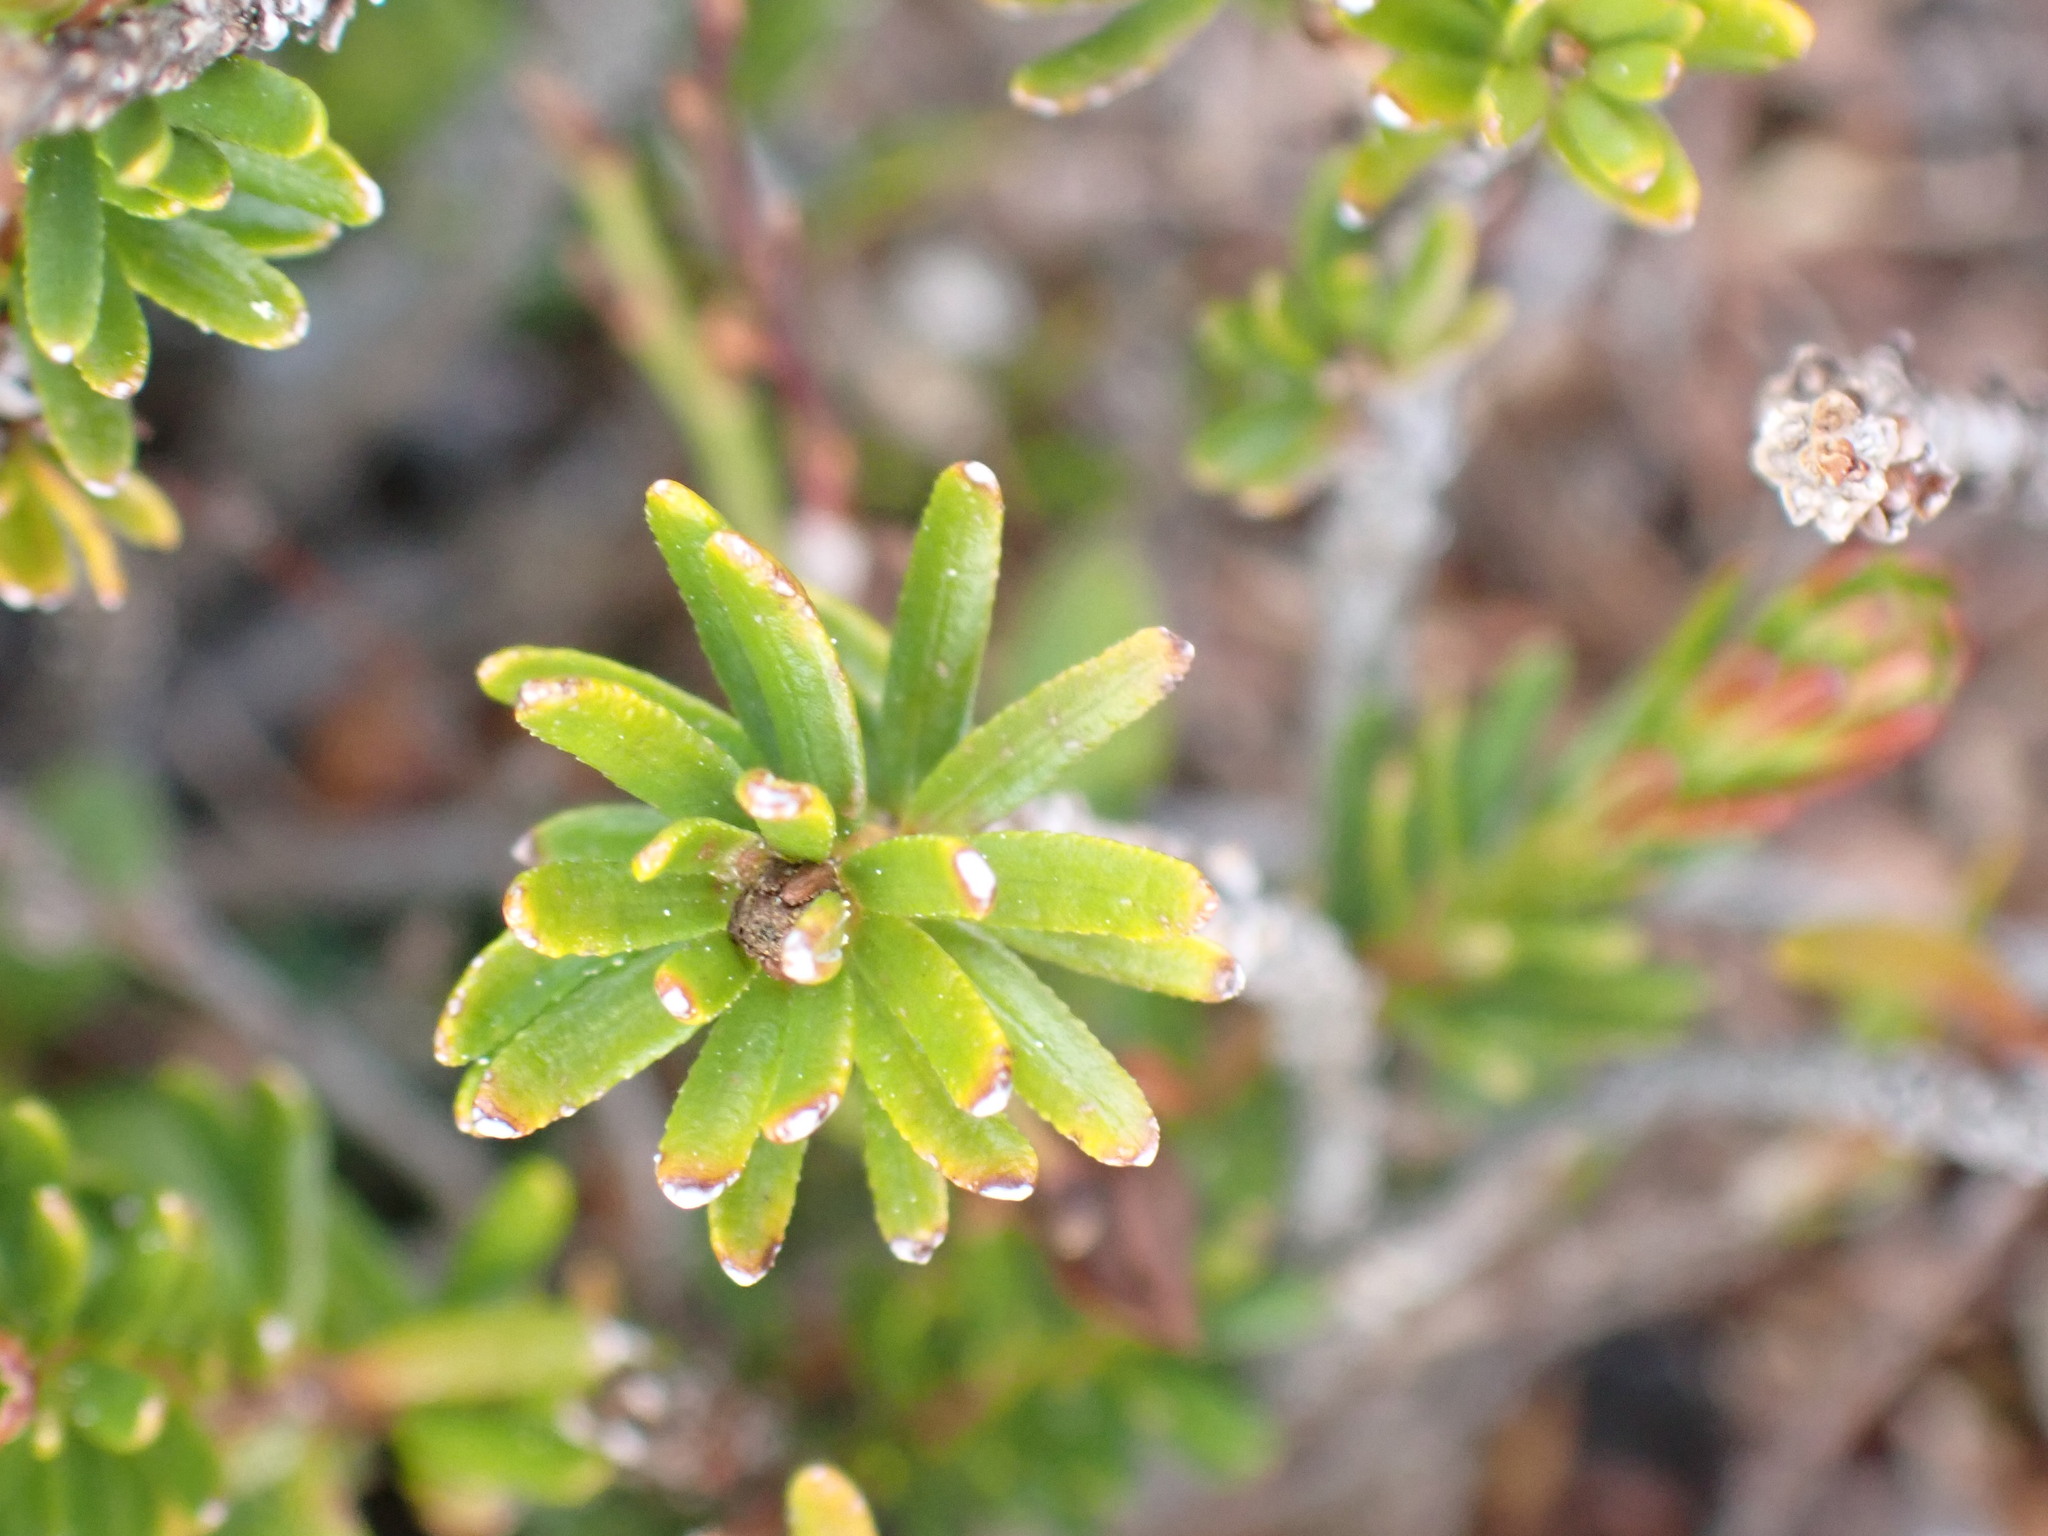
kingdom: Plantae
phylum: Tracheophyta
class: Magnoliopsida
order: Ericales
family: Ericaceae
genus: Phyllodoce
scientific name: Phyllodoce empetriformis
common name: Pink mountain heather
